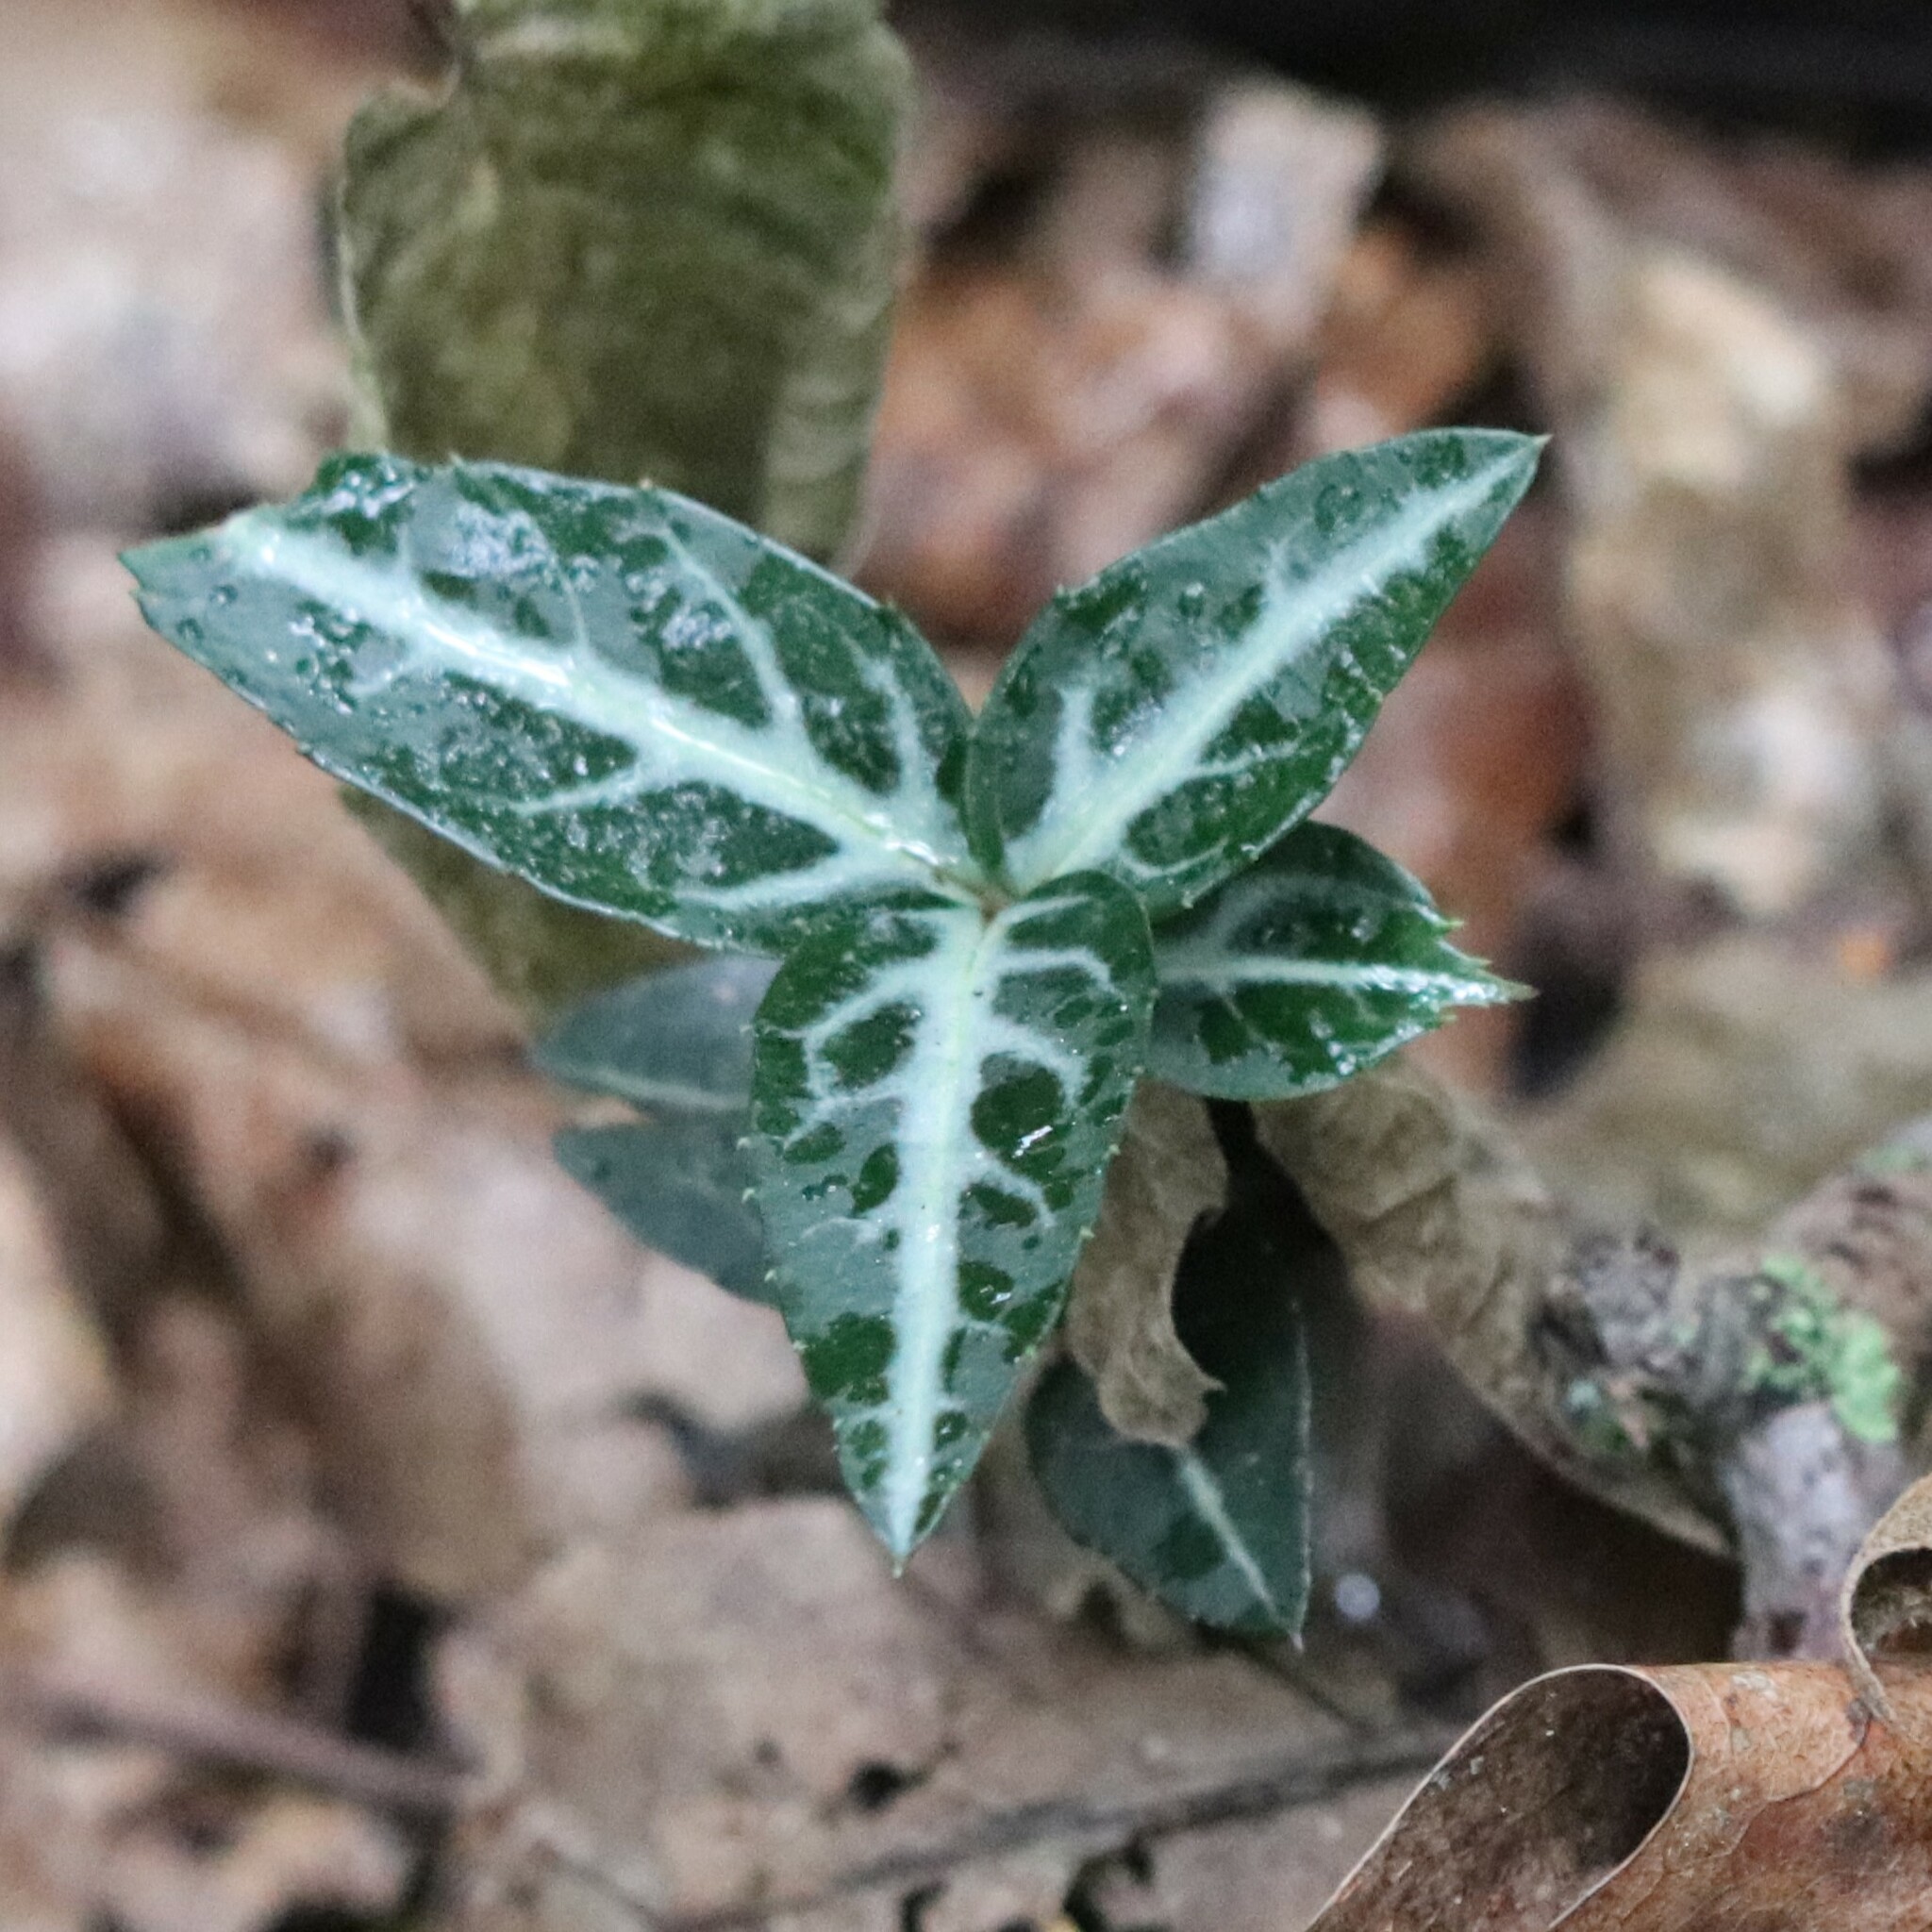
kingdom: Plantae
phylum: Tracheophyta
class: Magnoliopsida
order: Ericales
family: Ericaceae
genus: Chimaphila
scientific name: Chimaphila maculata
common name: Spotted pipsissewa
